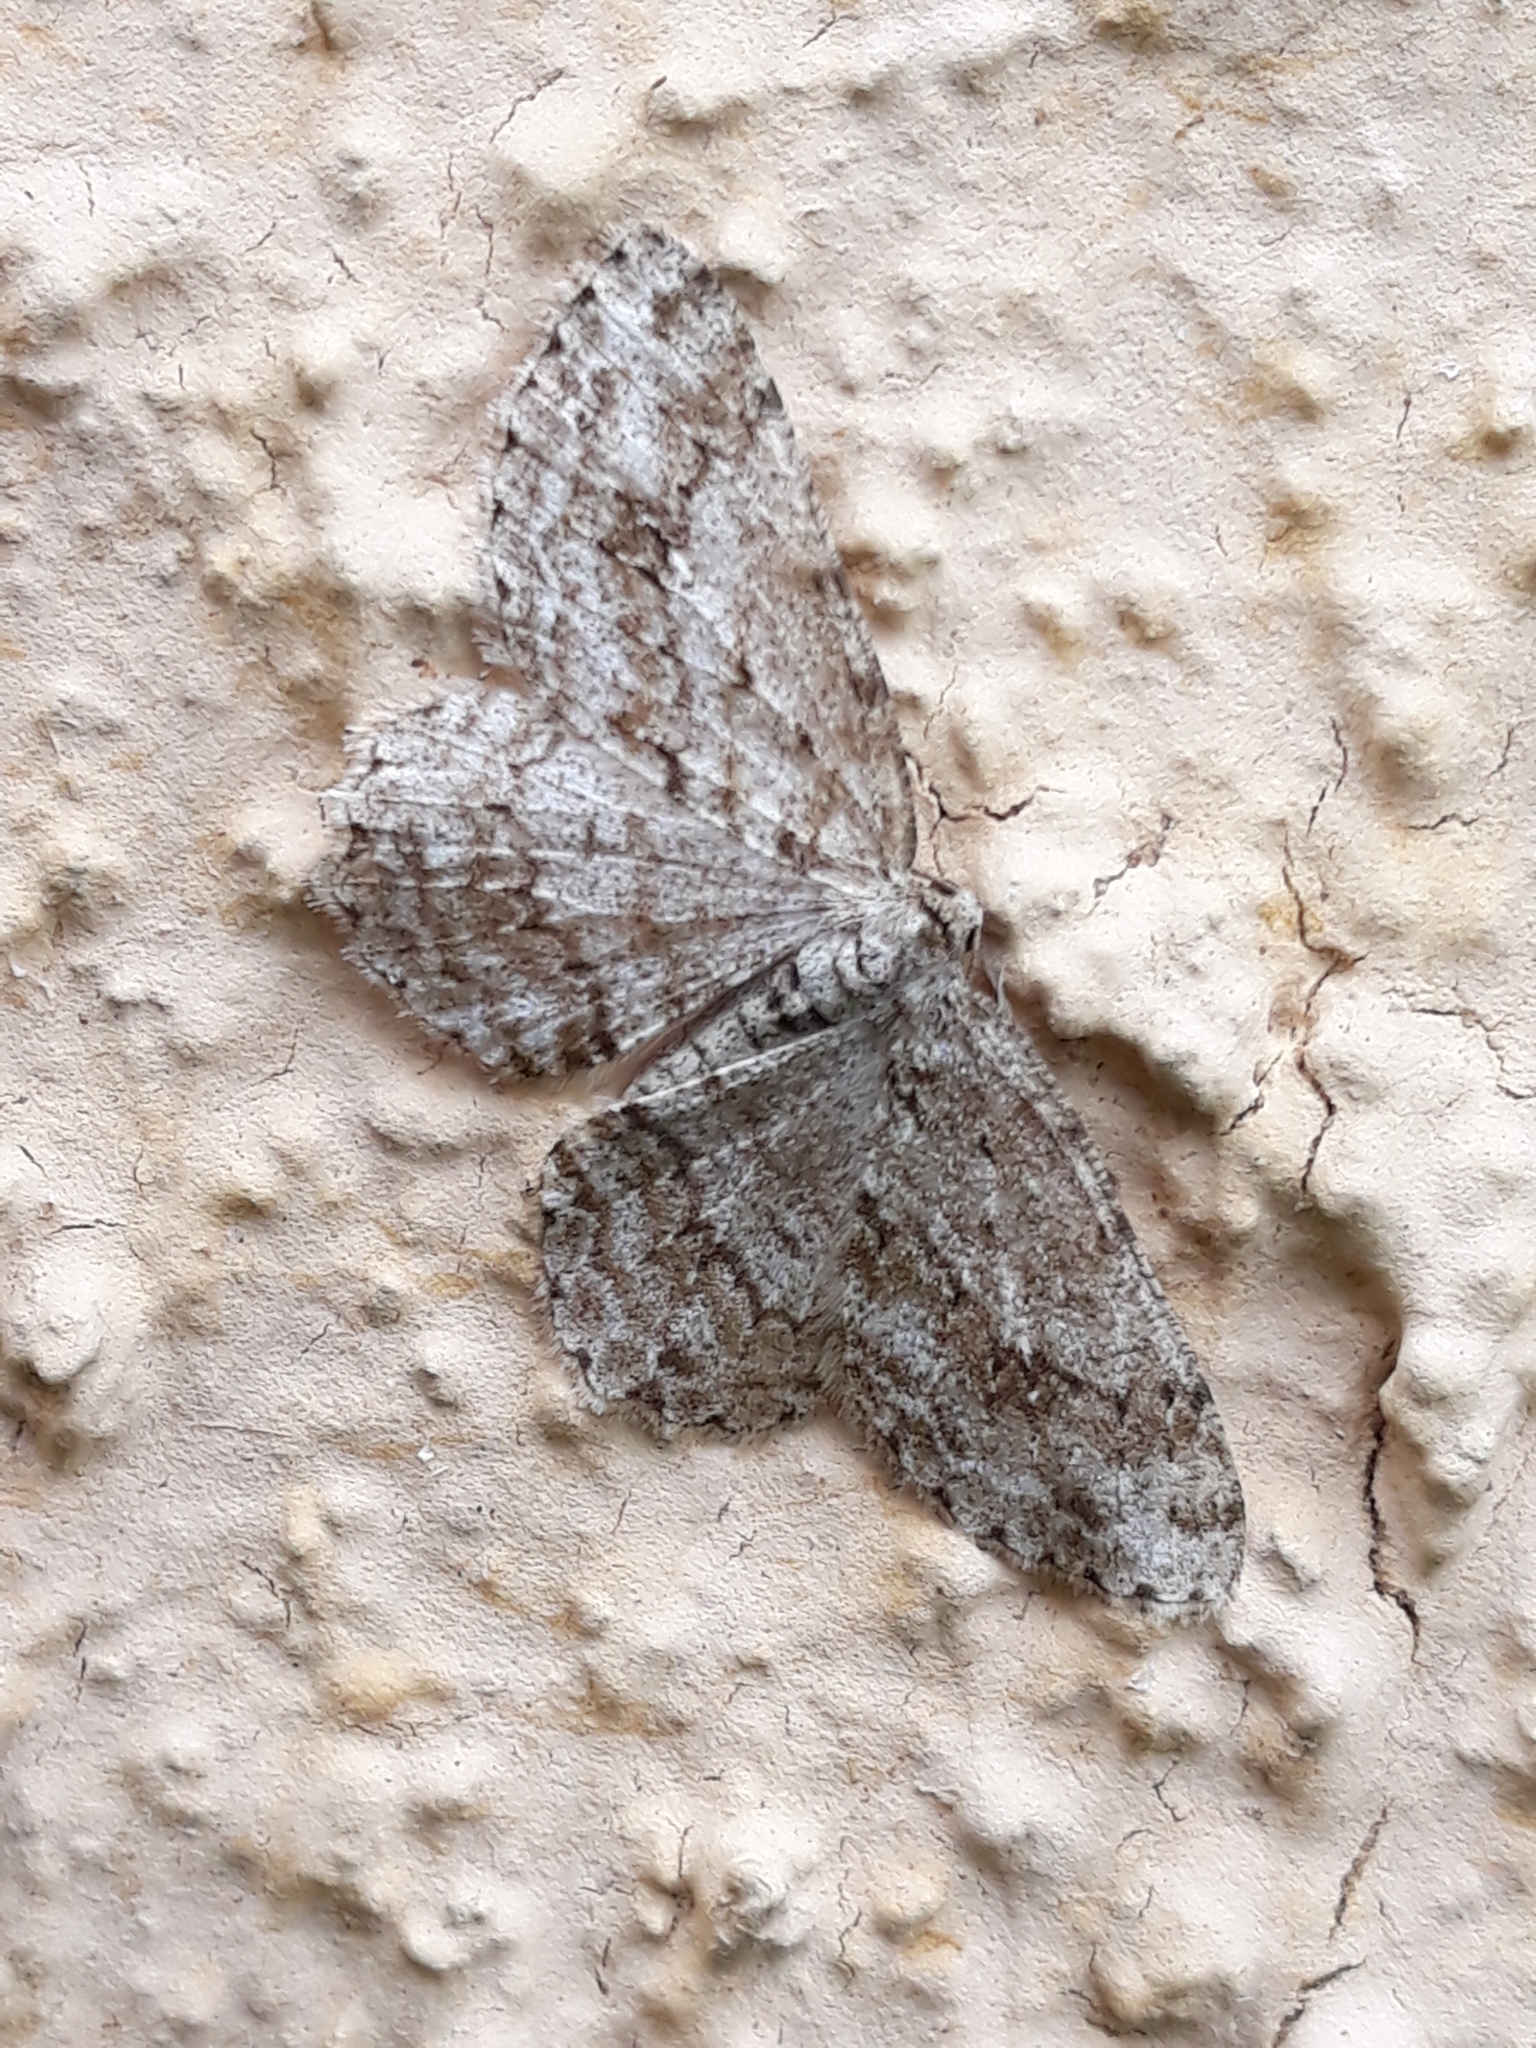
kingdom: Animalia
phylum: Arthropoda
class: Insecta
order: Lepidoptera
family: Geometridae
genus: Ectropis
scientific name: Ectropis crepuscularia
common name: Engrailed
